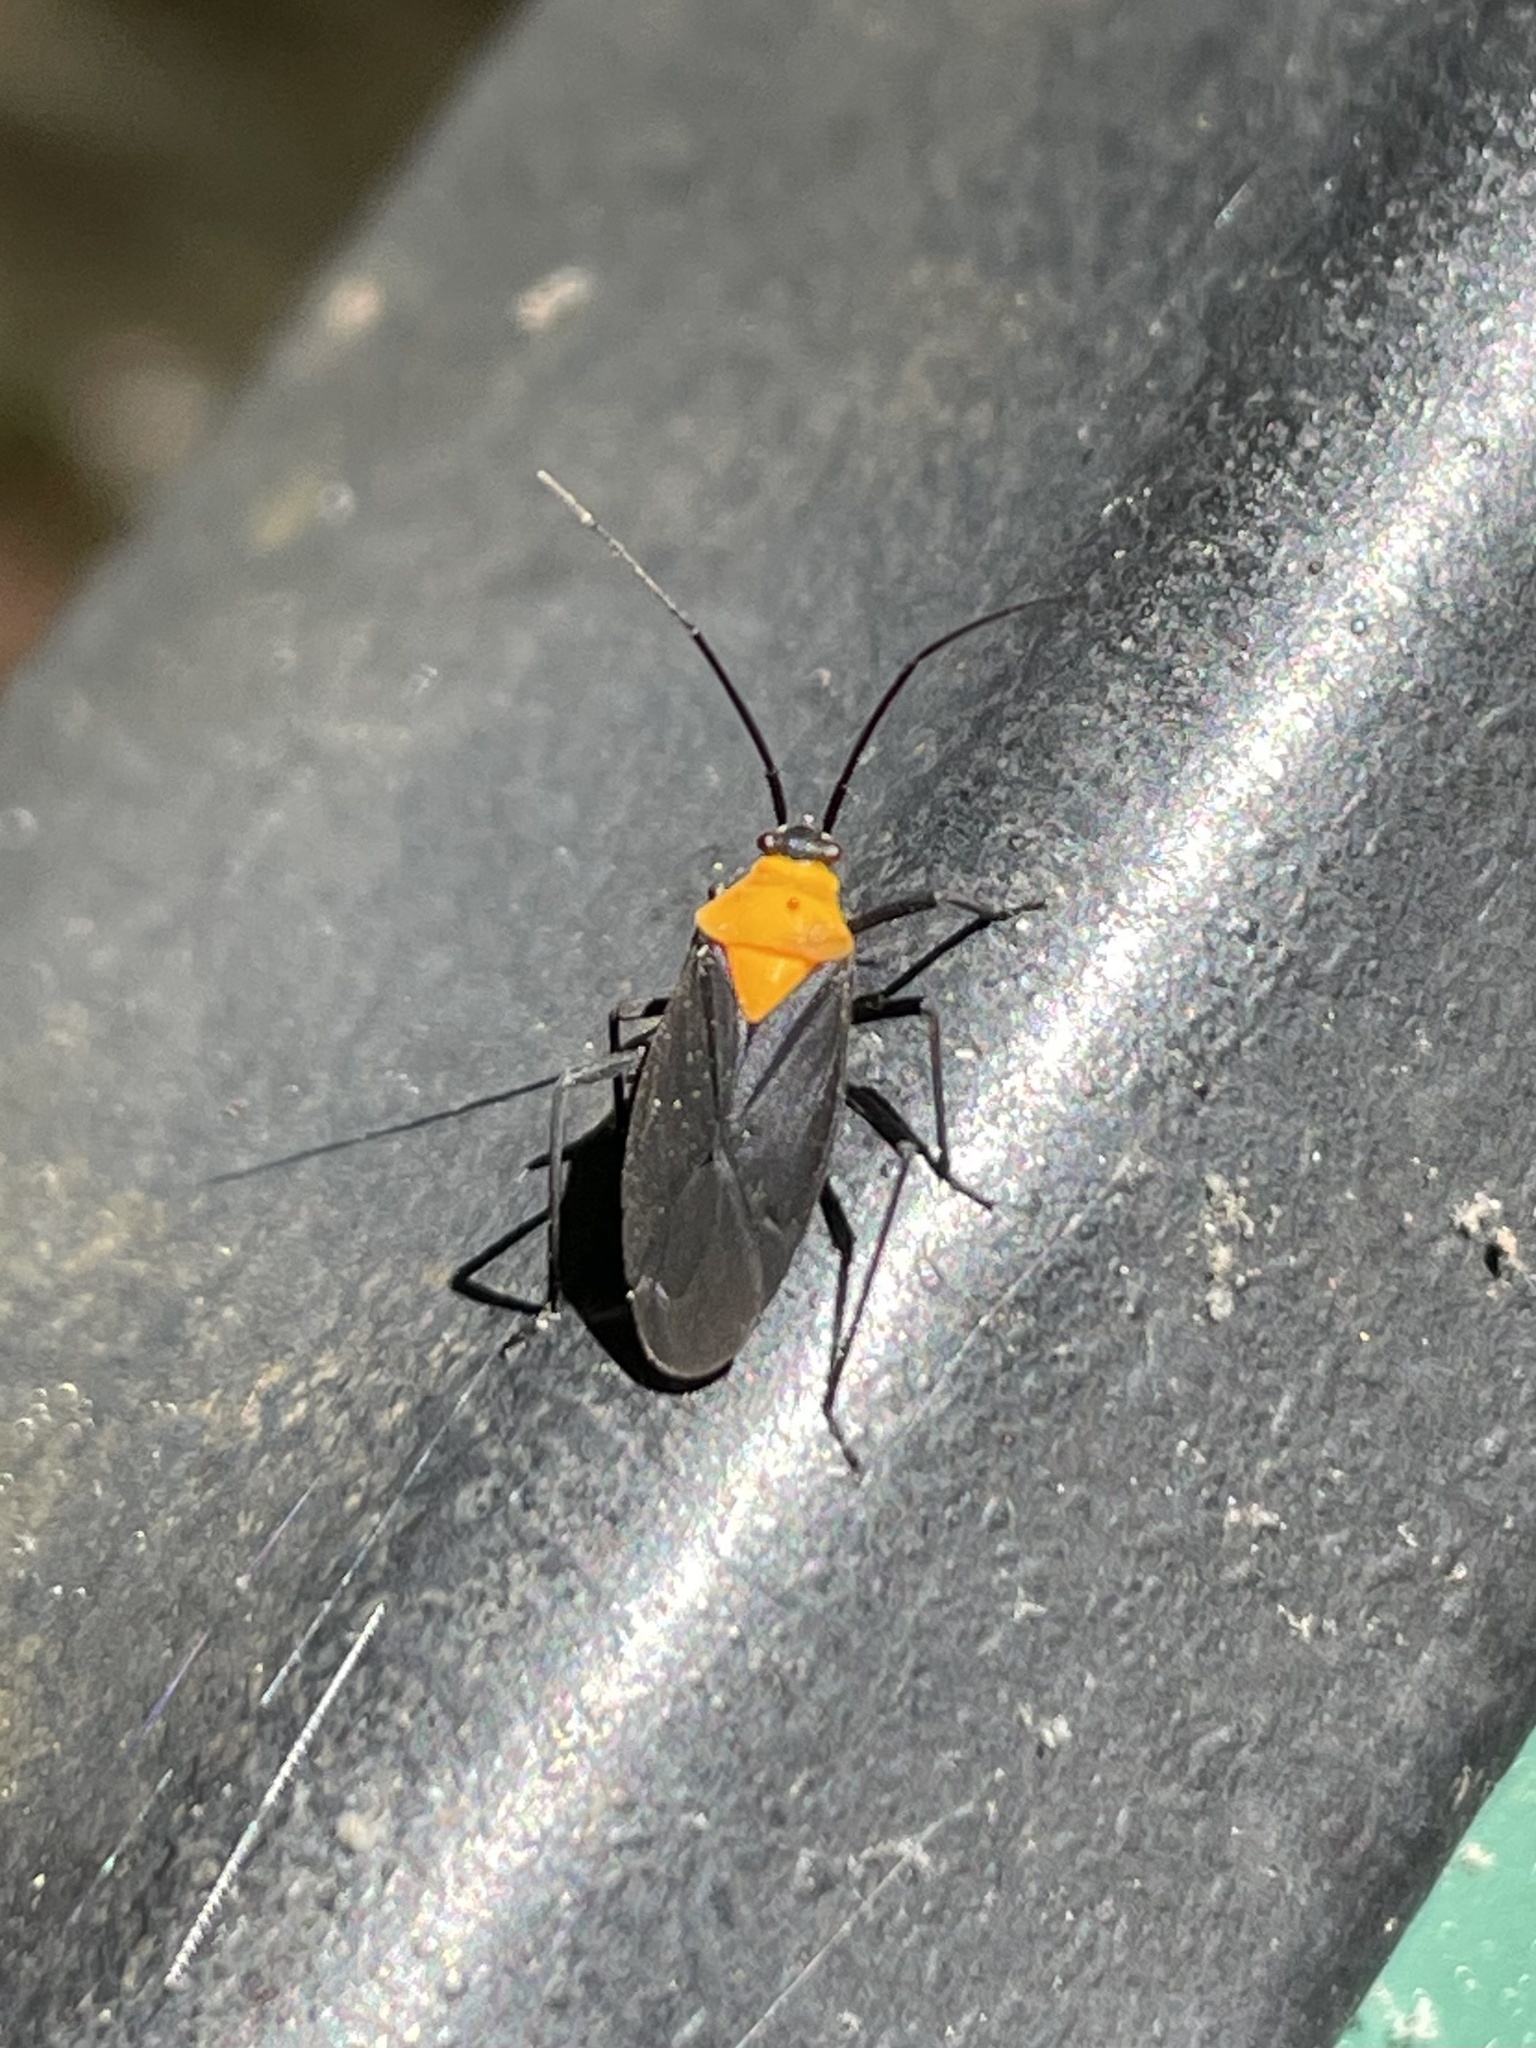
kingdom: Animalia
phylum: Arthropoda
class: Insecta
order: Hemiptera
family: Miridae
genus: Prepops
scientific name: Prepops insitivus
